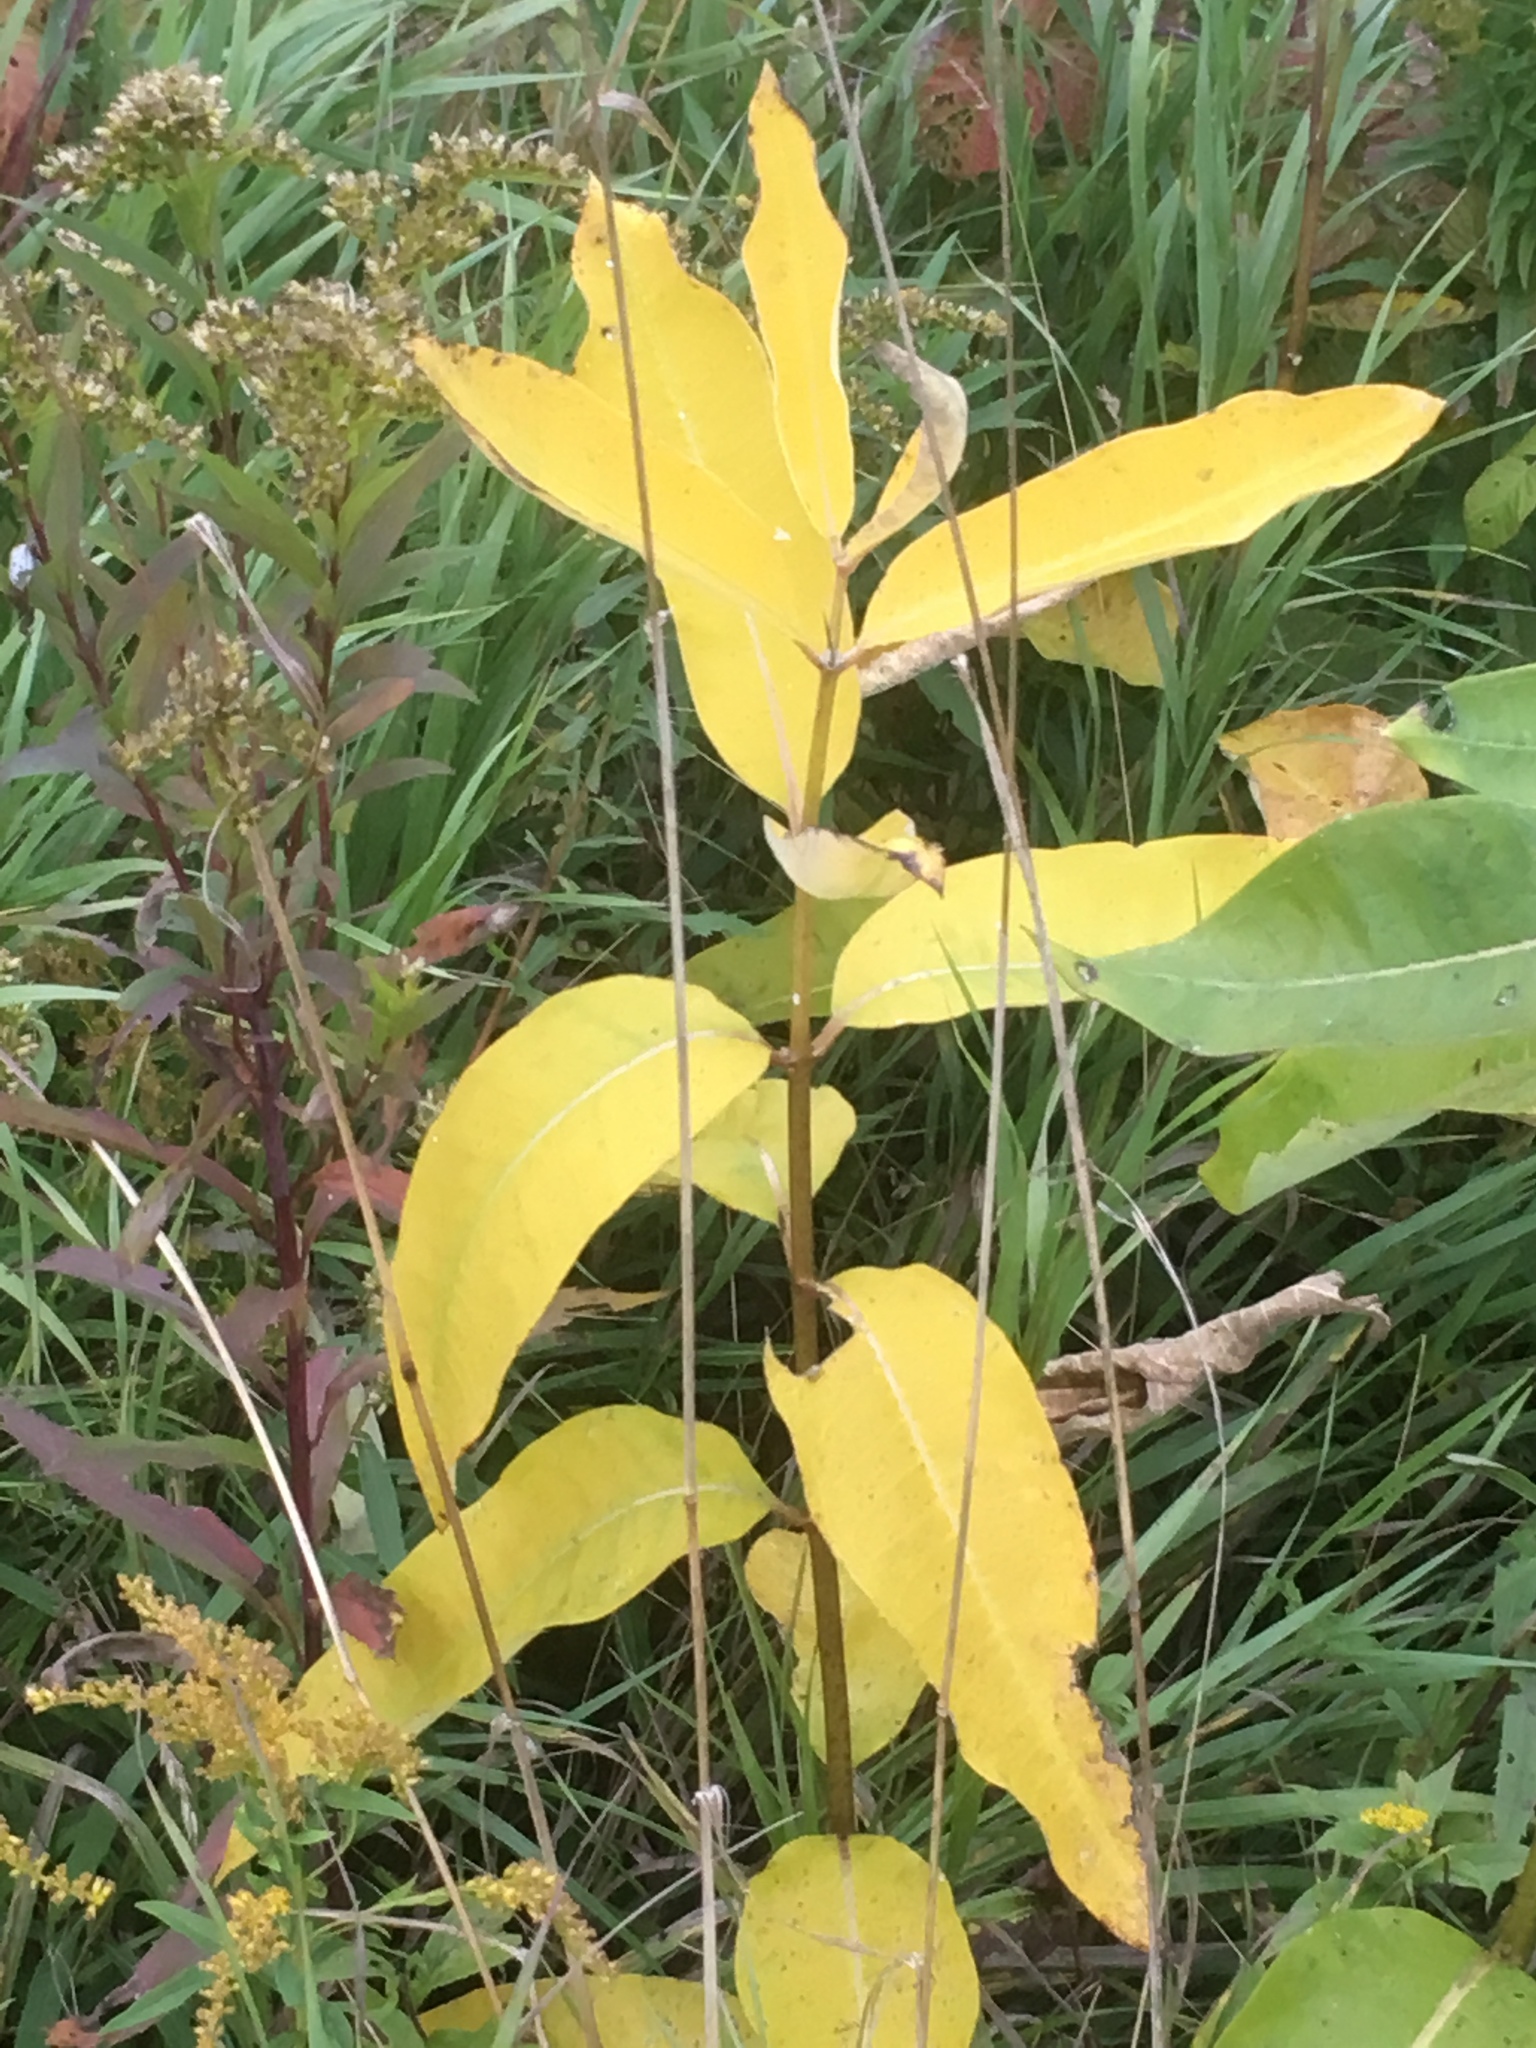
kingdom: Plantae
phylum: Tracheophyta
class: Magnoliopsida
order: Gentianales
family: Apocynaceae
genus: Asclepias
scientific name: Asclepias syriaca
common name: Common milkweed
